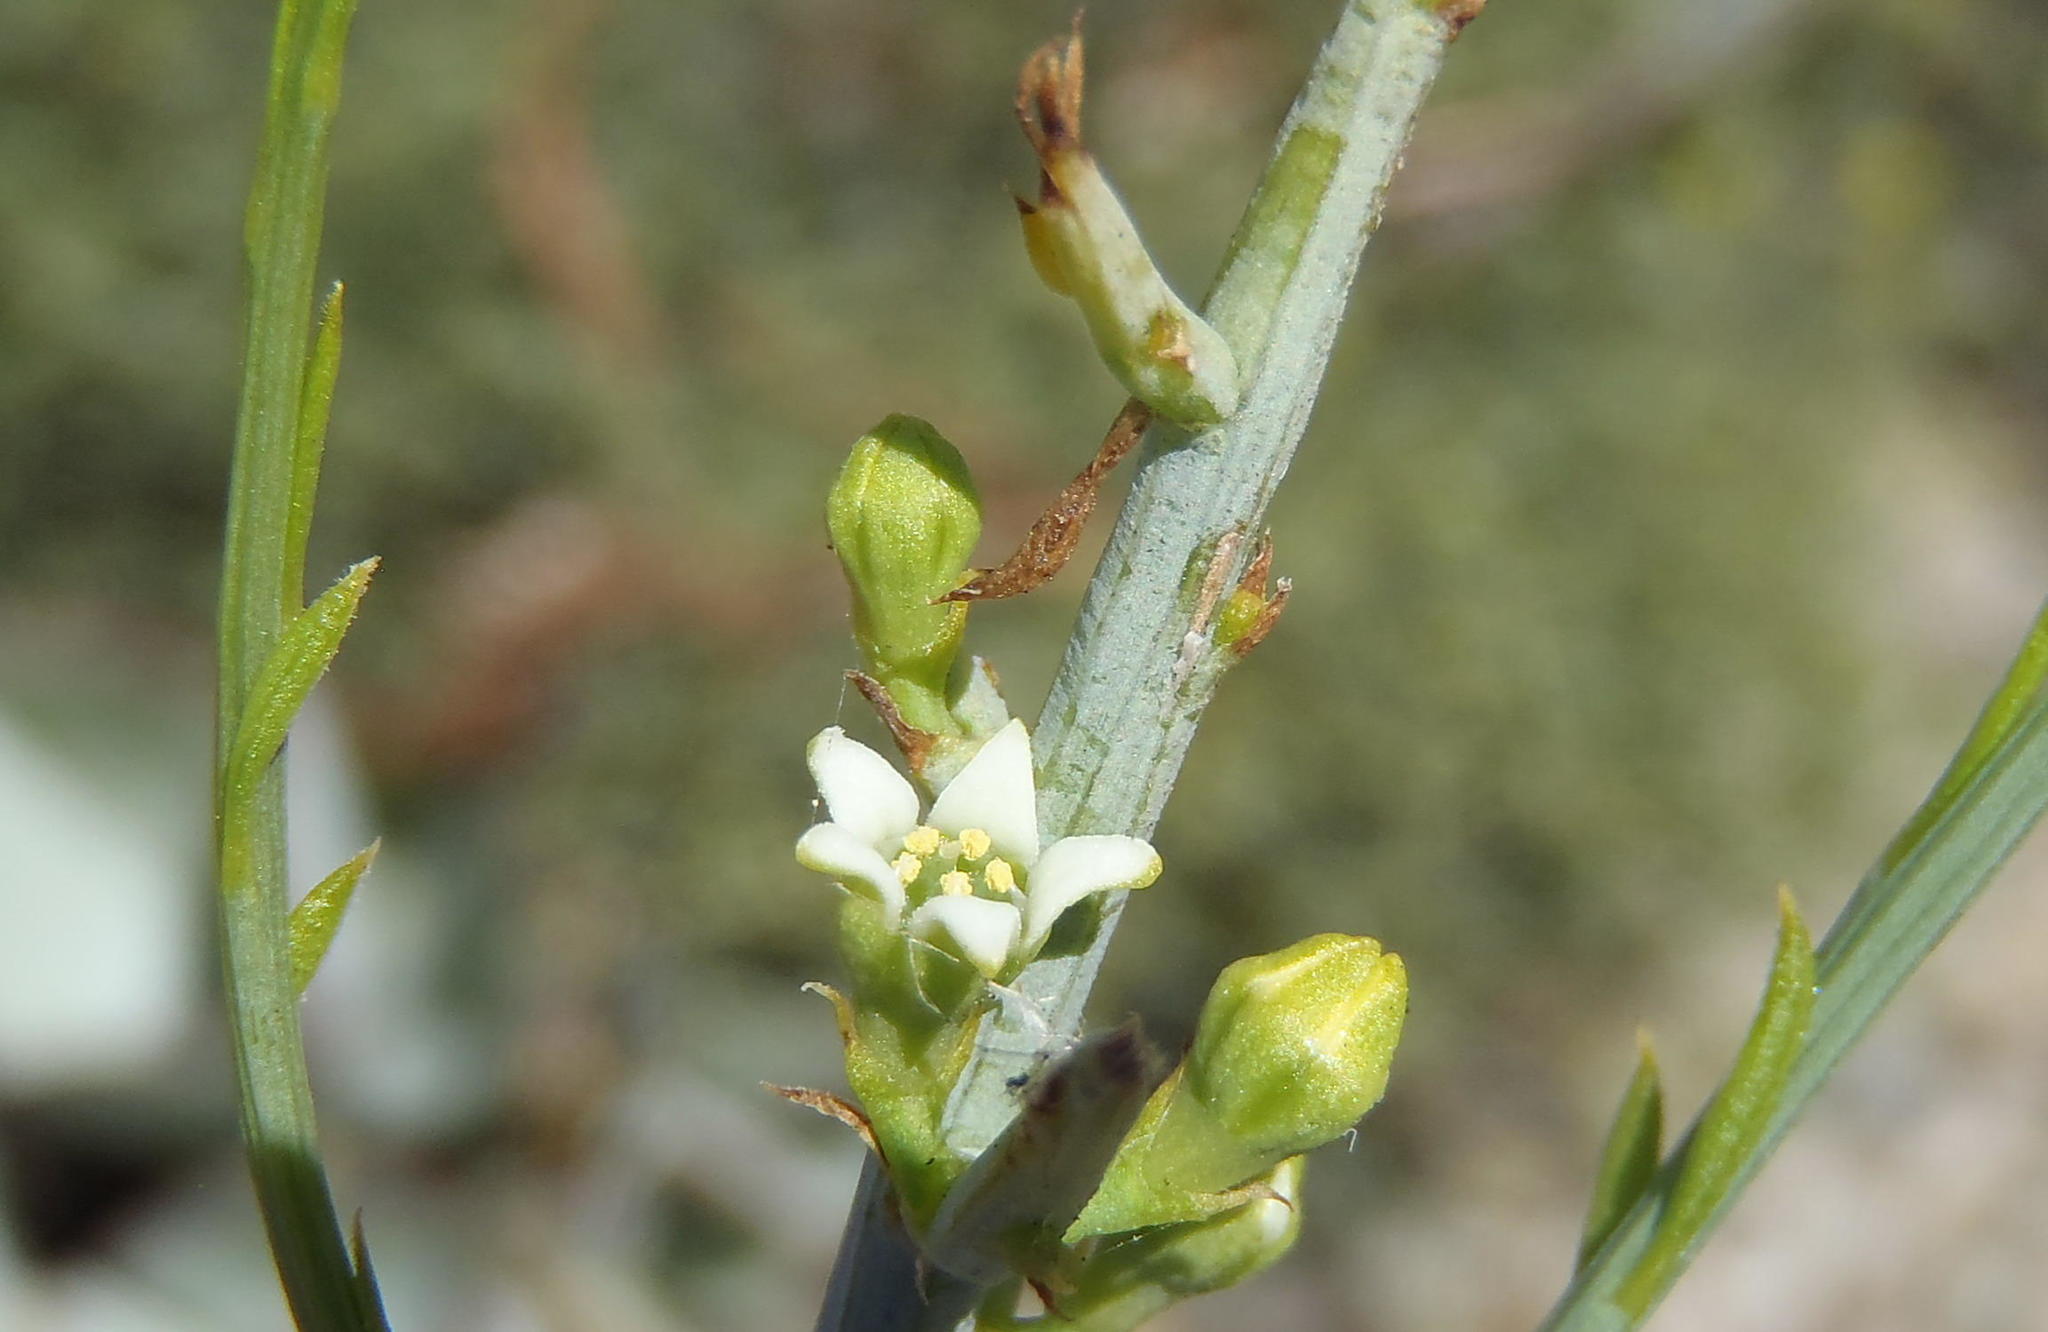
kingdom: Plantae
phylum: Tracheophyta
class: Magnoliopsida
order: Santalales
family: Thesiaceae
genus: Lacomucinaea
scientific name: Lacomucinaea lineata
